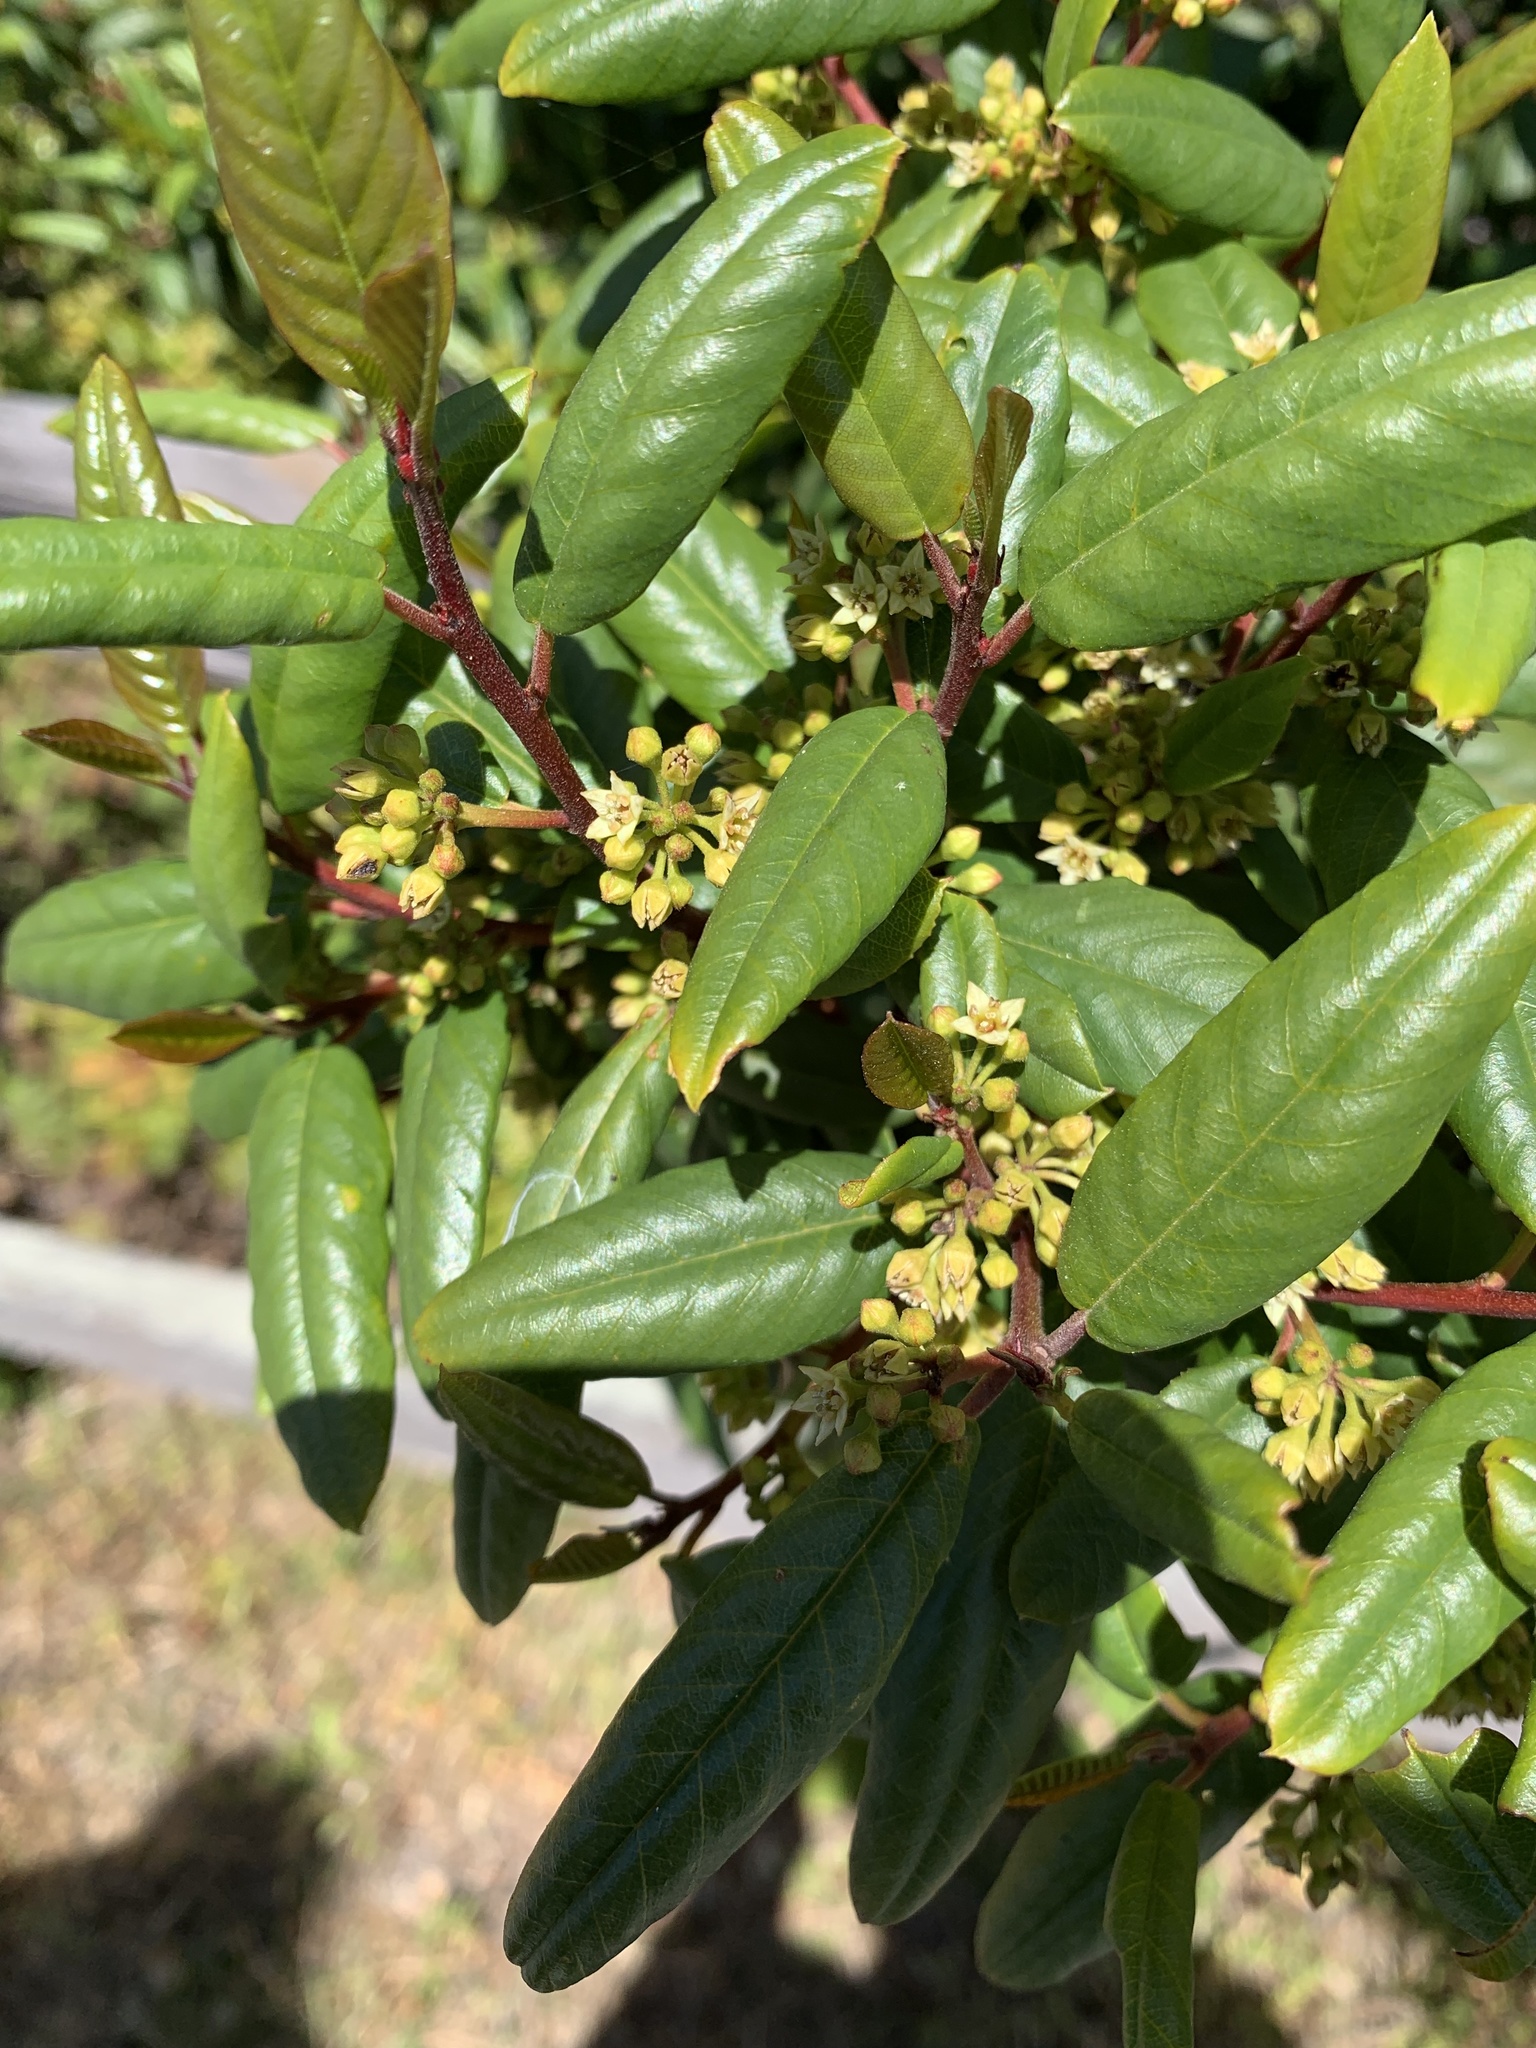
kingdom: Plantae
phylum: Tracheophyta
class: Magnoliopsida
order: Rosales
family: Rhamnaceae
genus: Frangula
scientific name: Frangula californica
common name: California buckthorn
